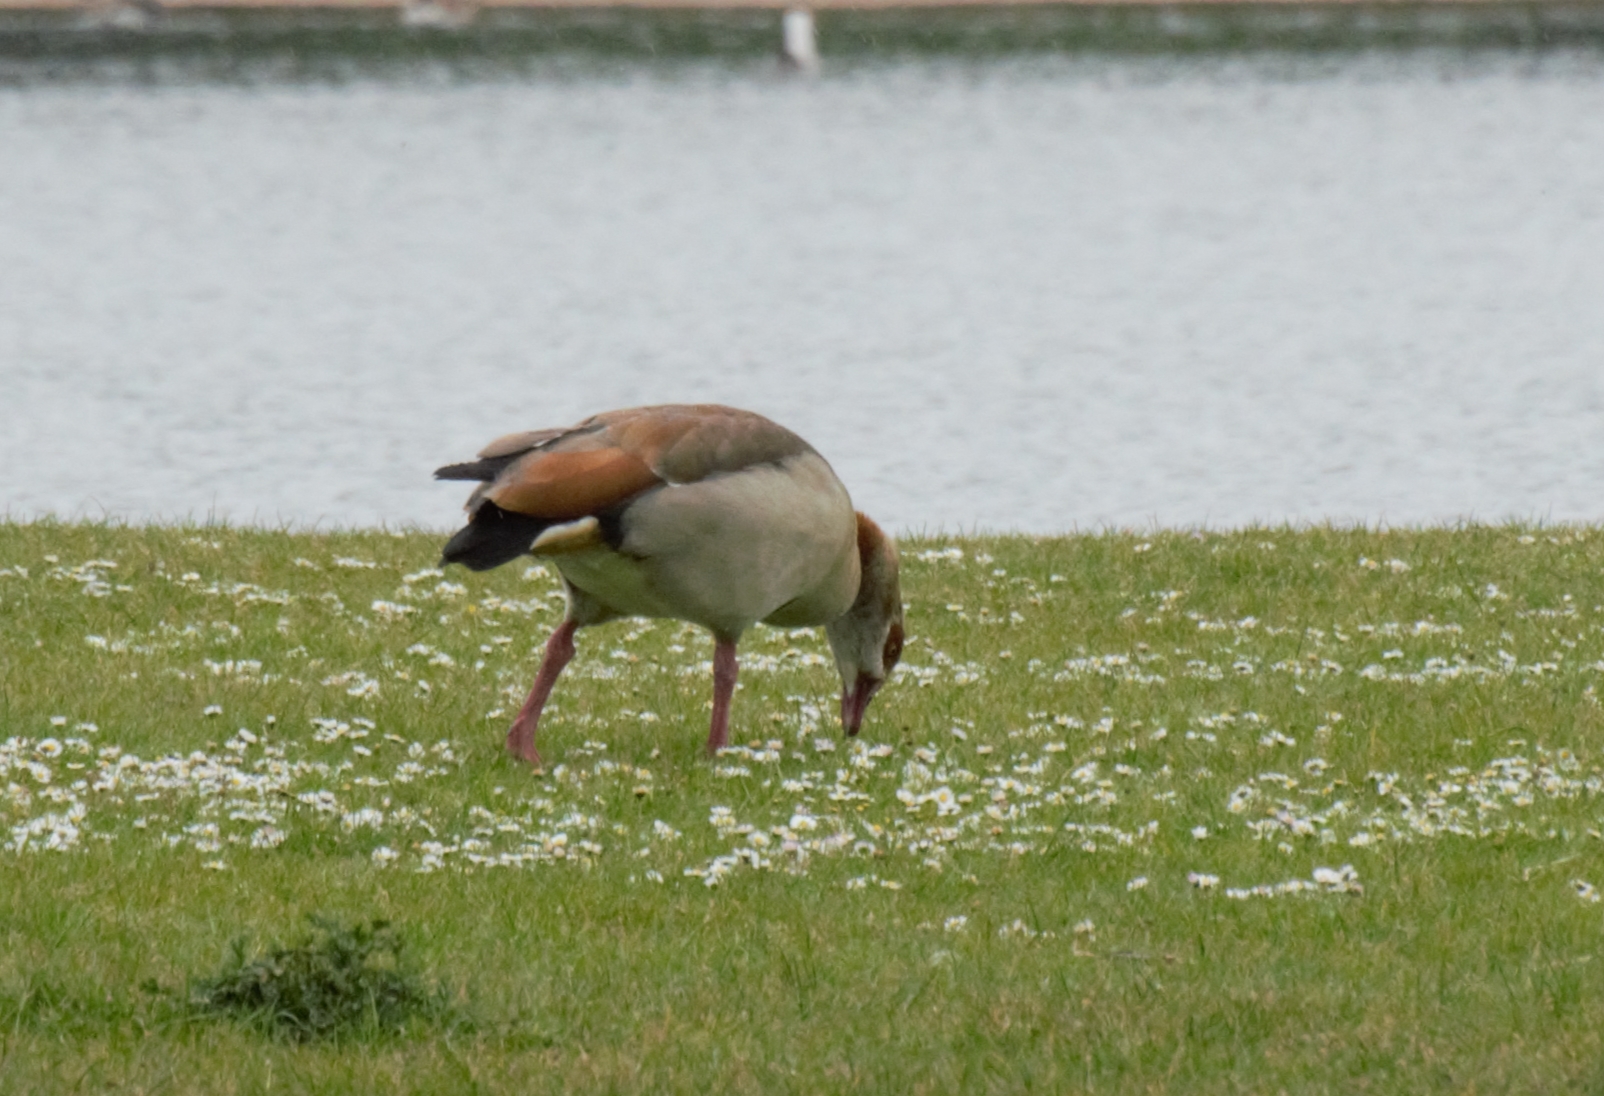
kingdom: Animalia
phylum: Chordata
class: Aves
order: Anseriformes
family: Anatidae
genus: Alopochen
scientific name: Alopochen aegyptiaca
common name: Egyptian goose
